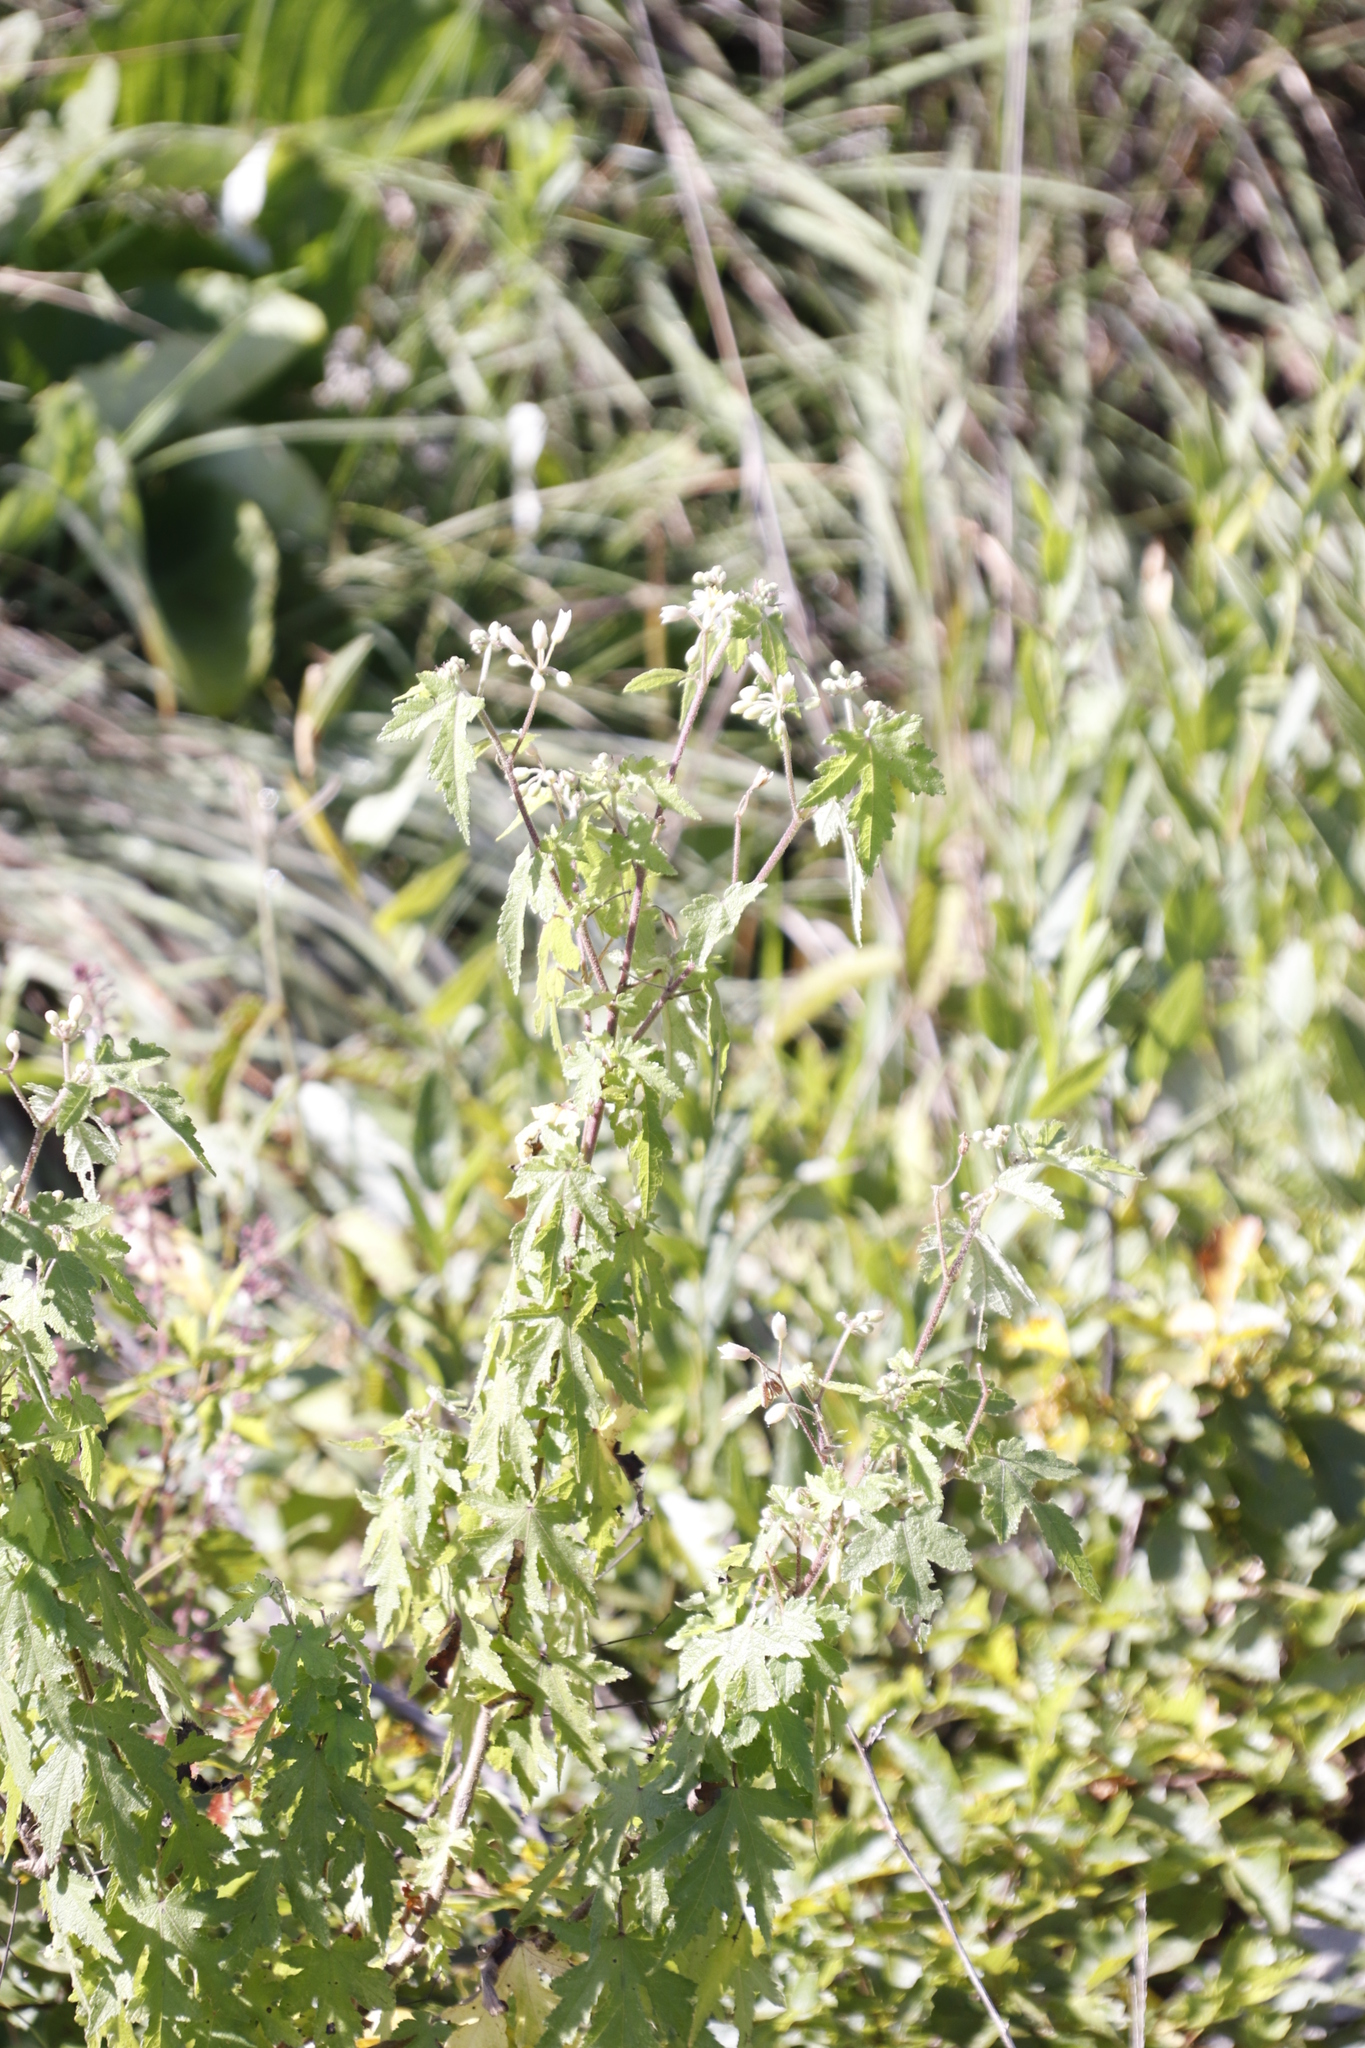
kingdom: Plantae
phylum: Tracheophyta
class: Magnoliopsida
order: Malvales
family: Malvaceae
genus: Sparrmannia
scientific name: Sparrmannia ricinocarpa
